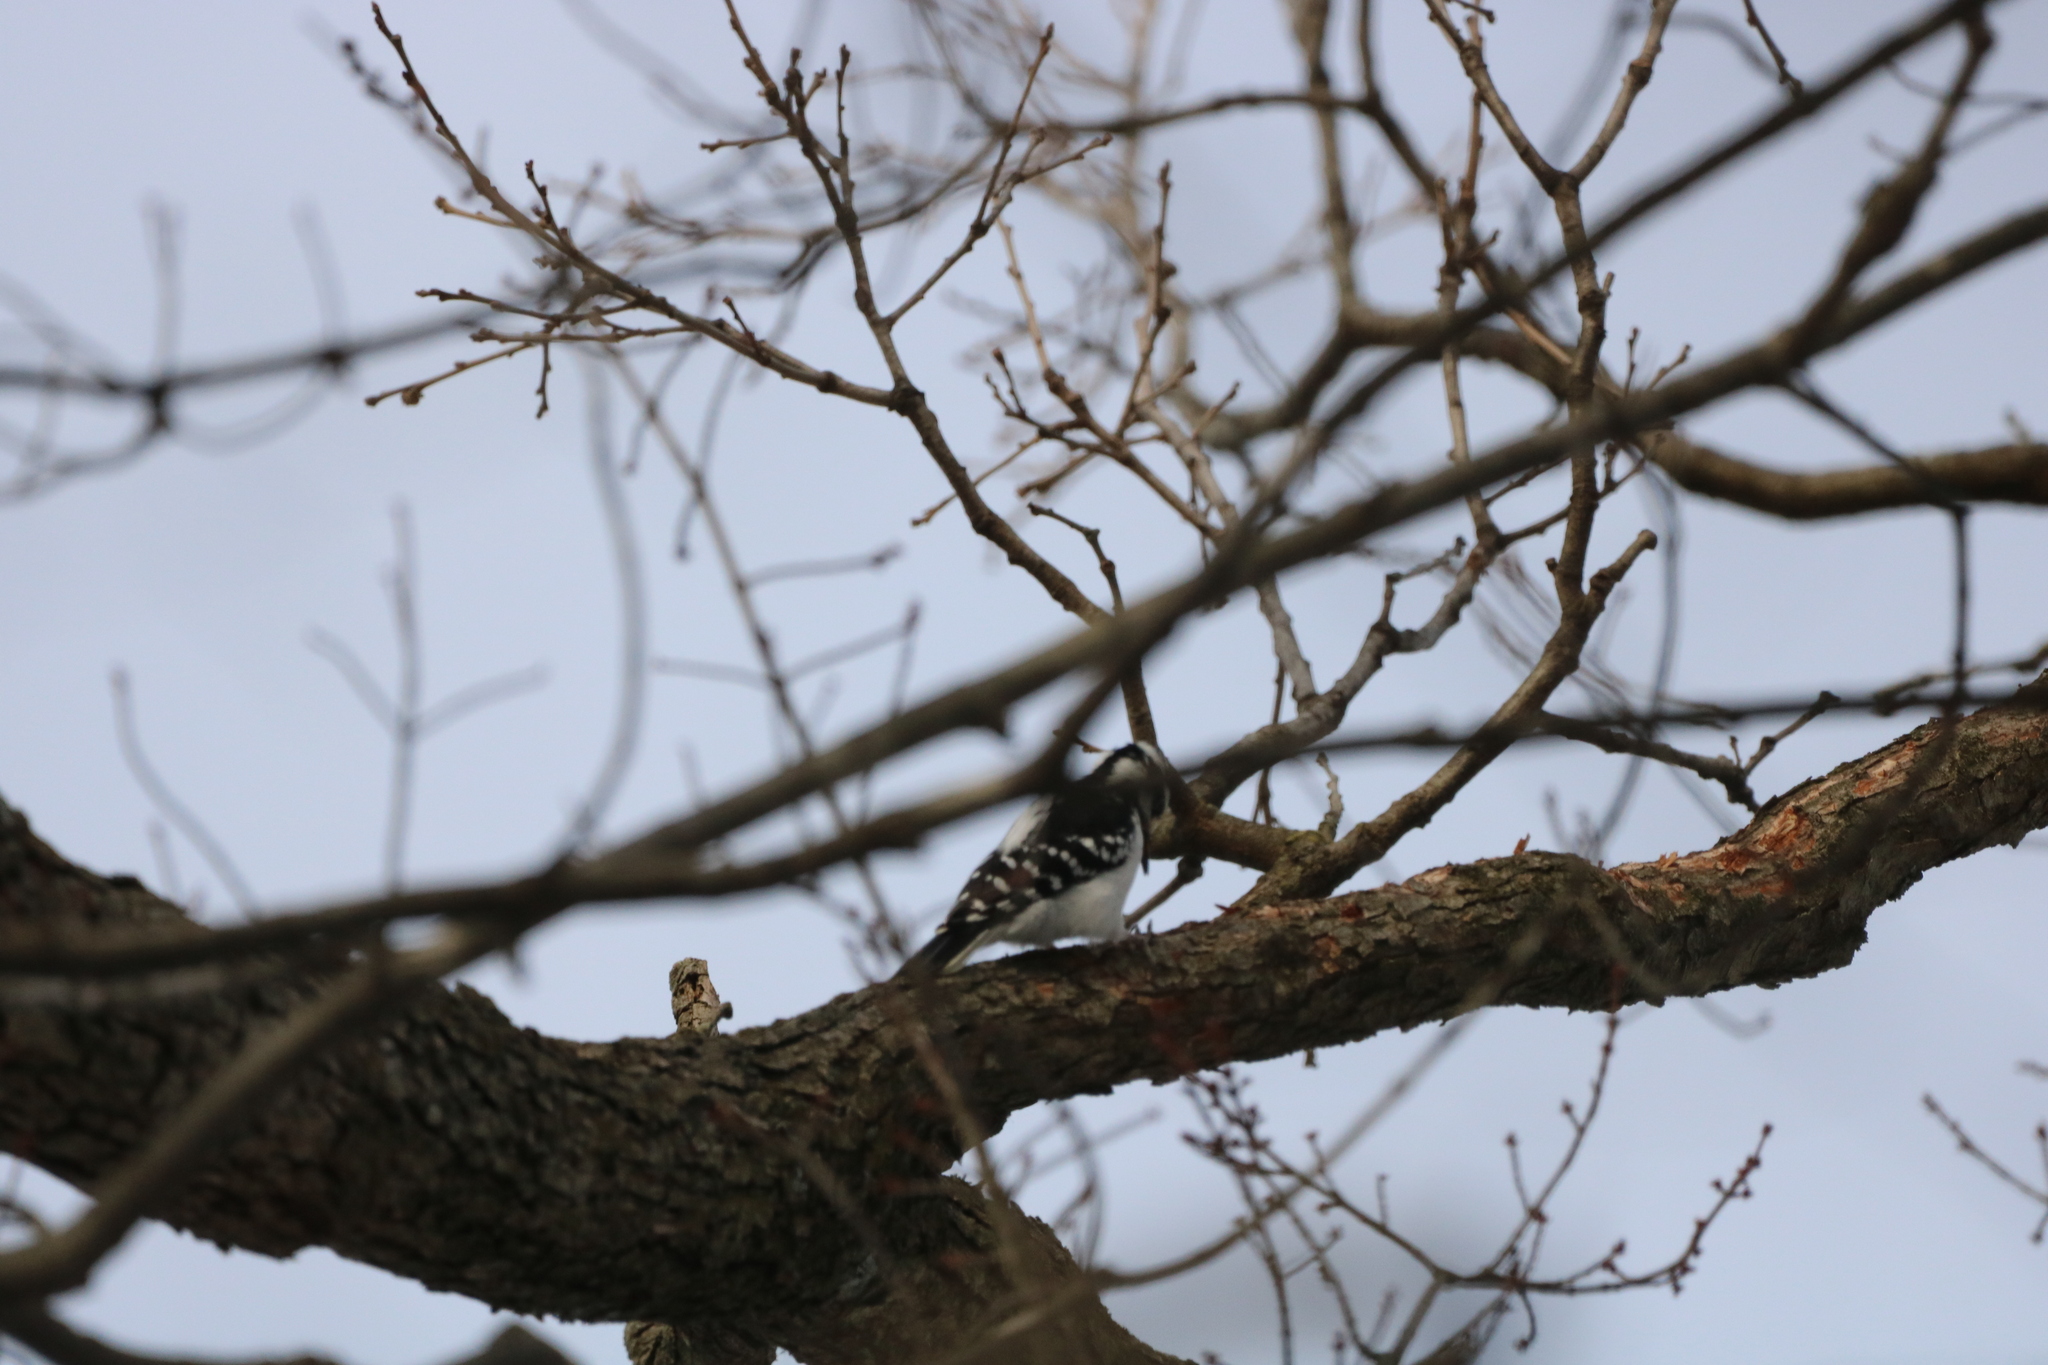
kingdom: Animalia
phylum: Chordata
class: Aves
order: Piciformes
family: Picidae
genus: Leuconotopicus
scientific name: Leuconotopicus villosus
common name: Hairy woodpecker
